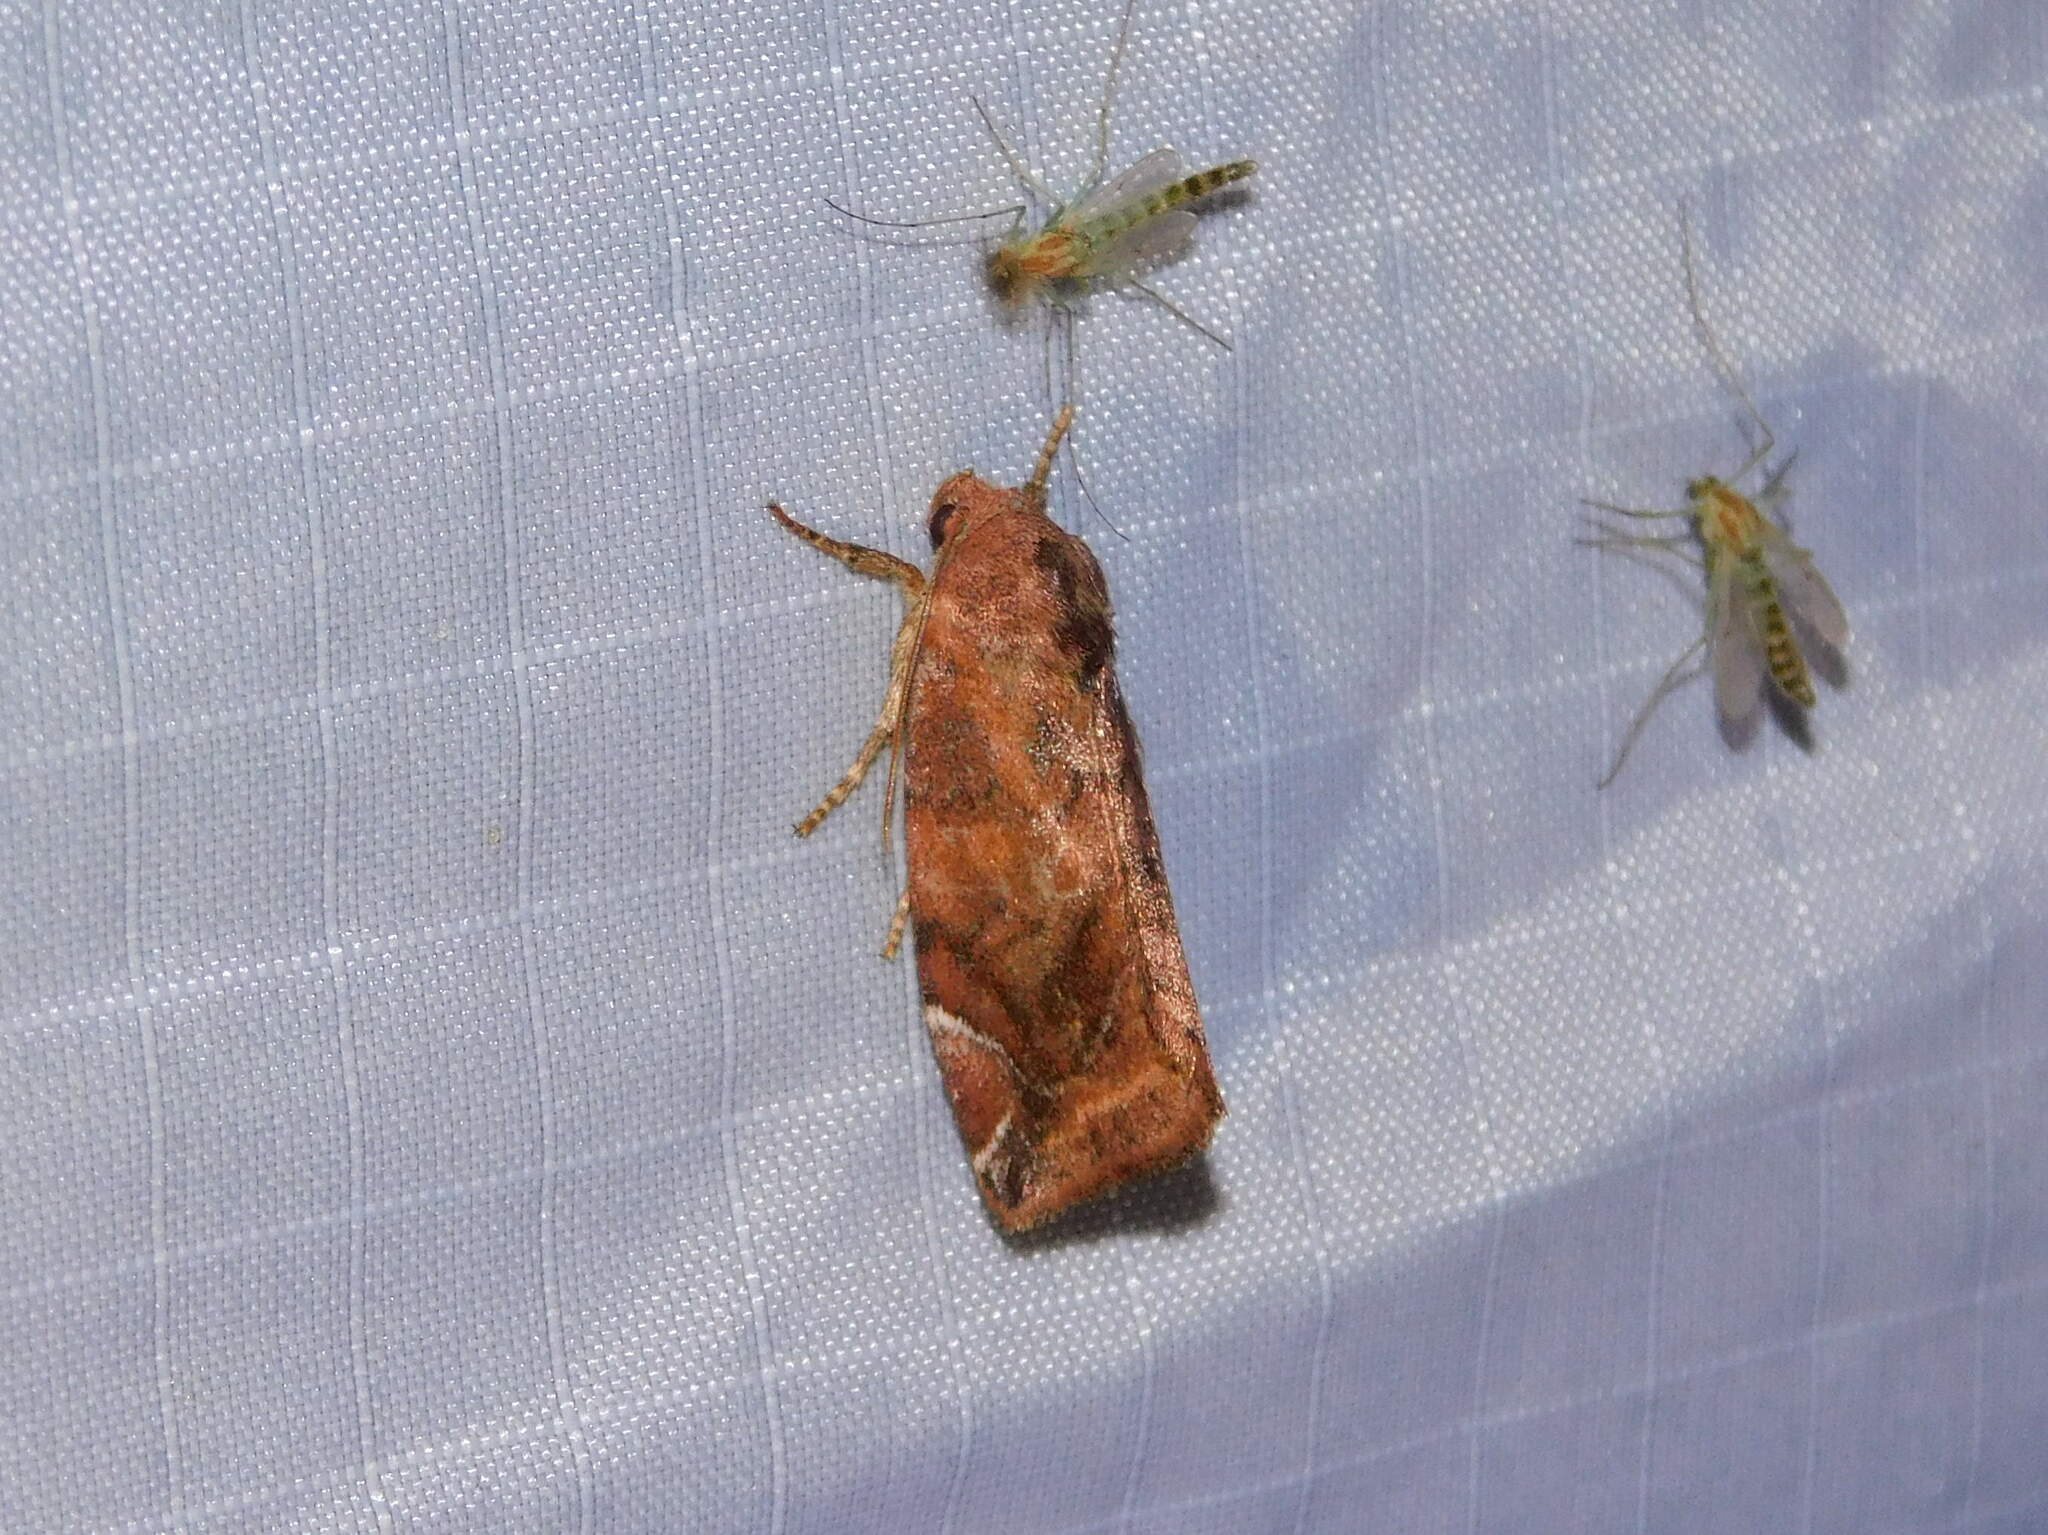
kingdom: Animalia
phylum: Arthropoda
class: Insecta
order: Lepidoptera
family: Noctuidae
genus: Cosmia
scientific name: Cosmia pyralina
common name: Lunar-spotted pinion
